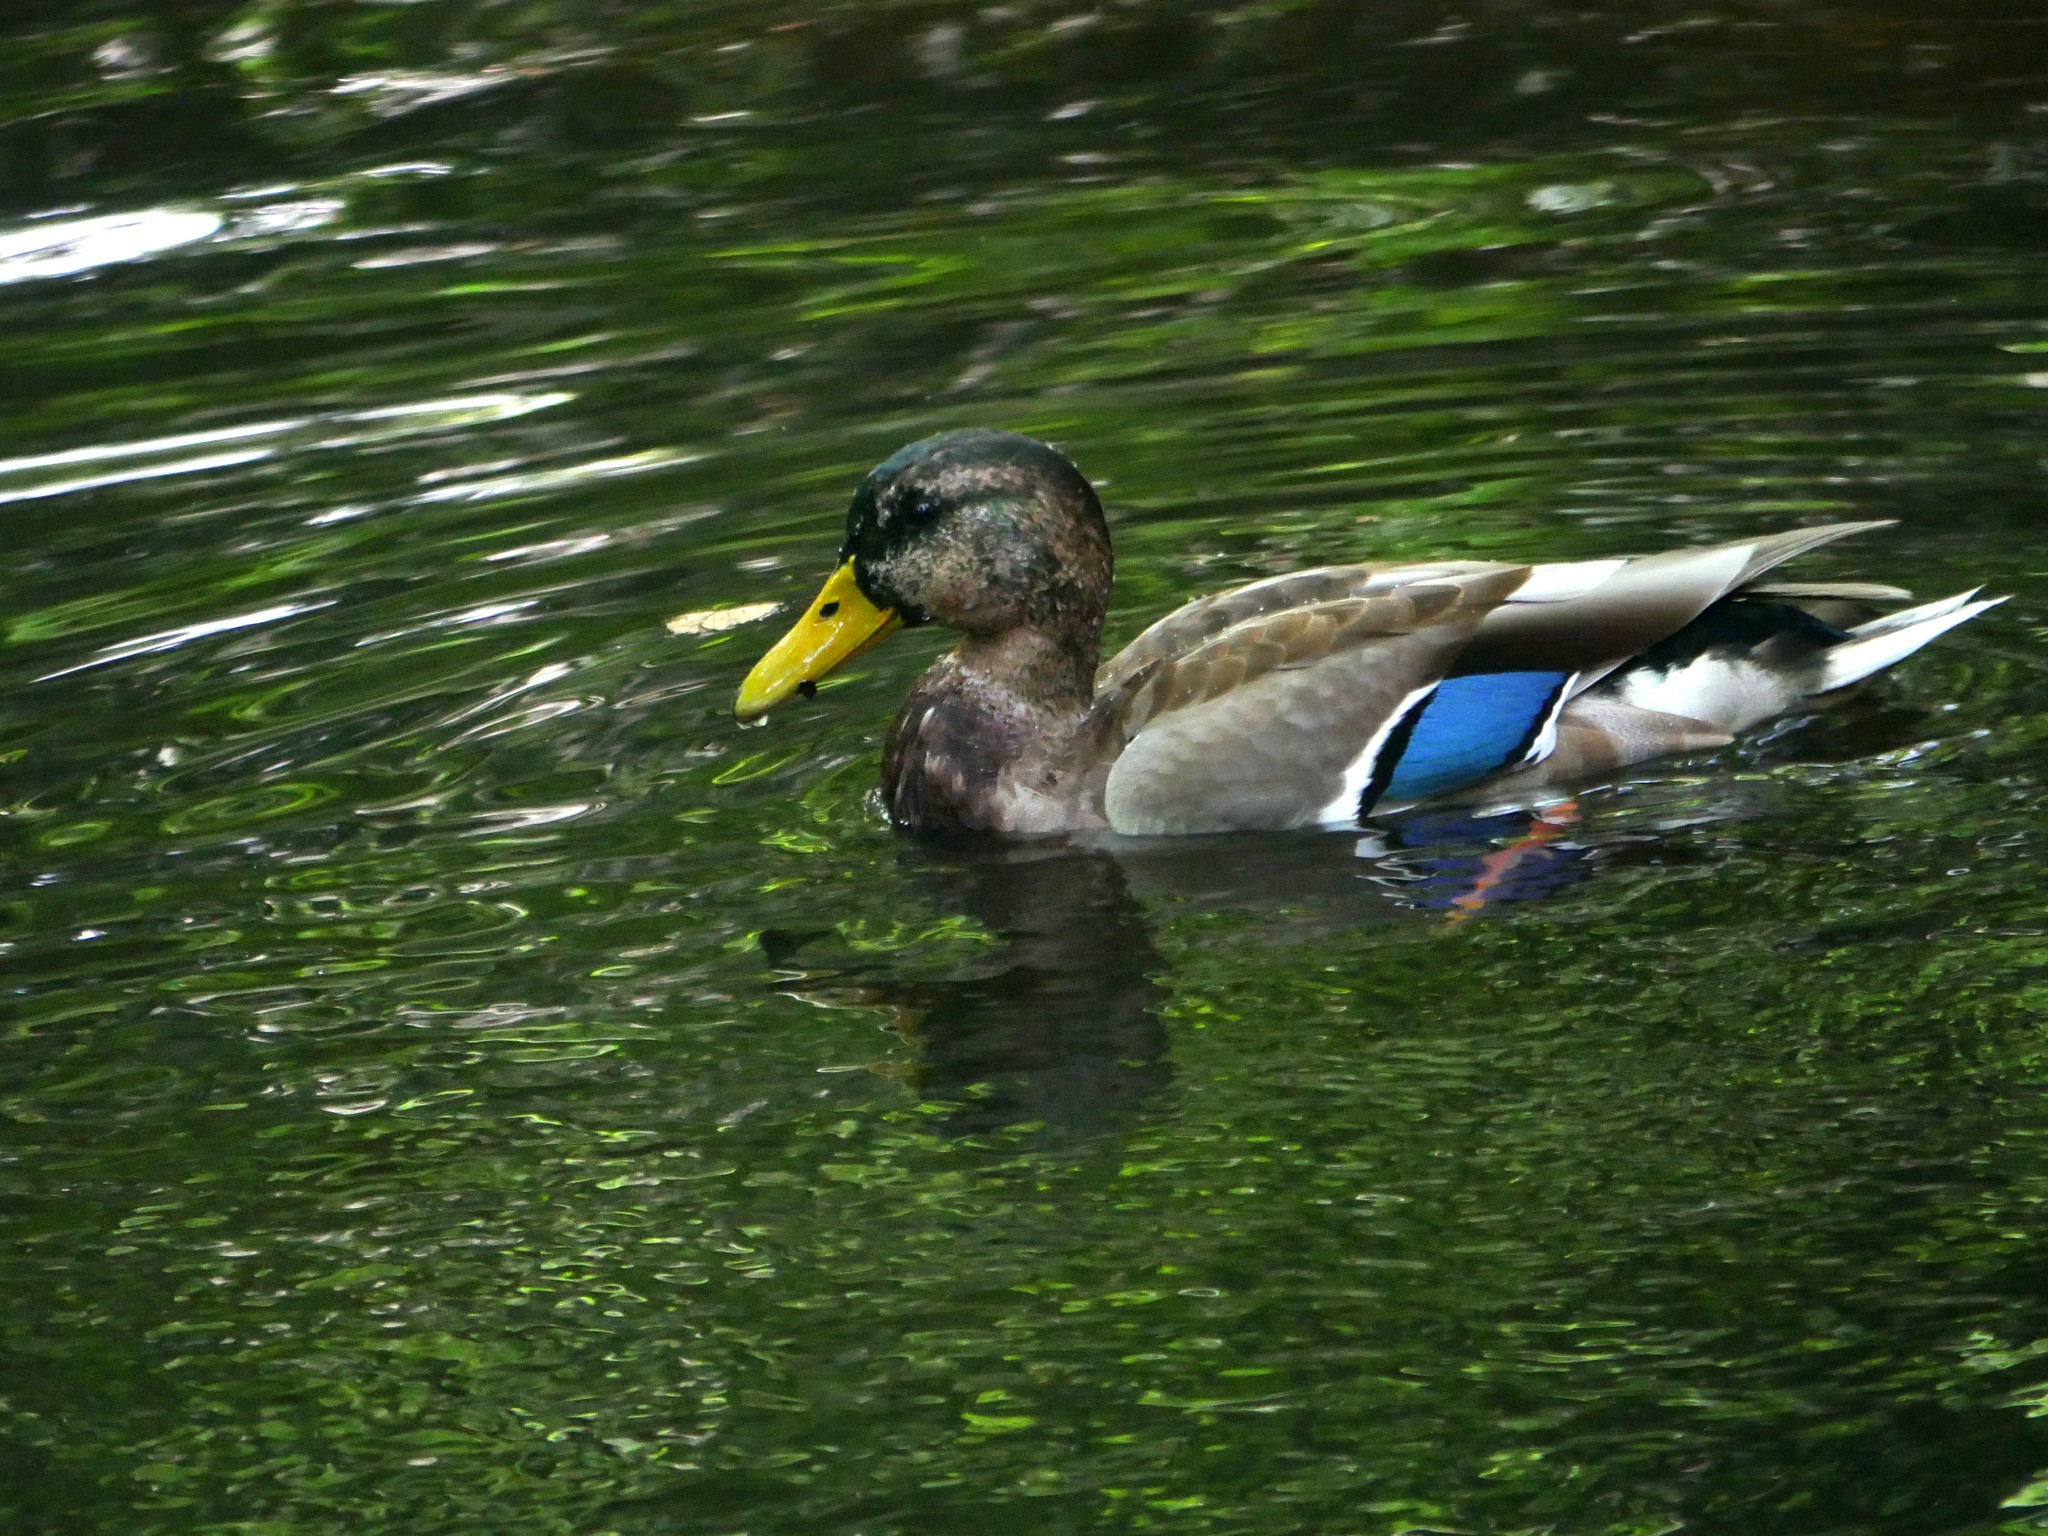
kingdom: Animalia
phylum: Chordata
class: Aves
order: Anseriformes
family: Anatidae
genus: Anas
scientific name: Anas platyrhynchos
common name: Mallard
